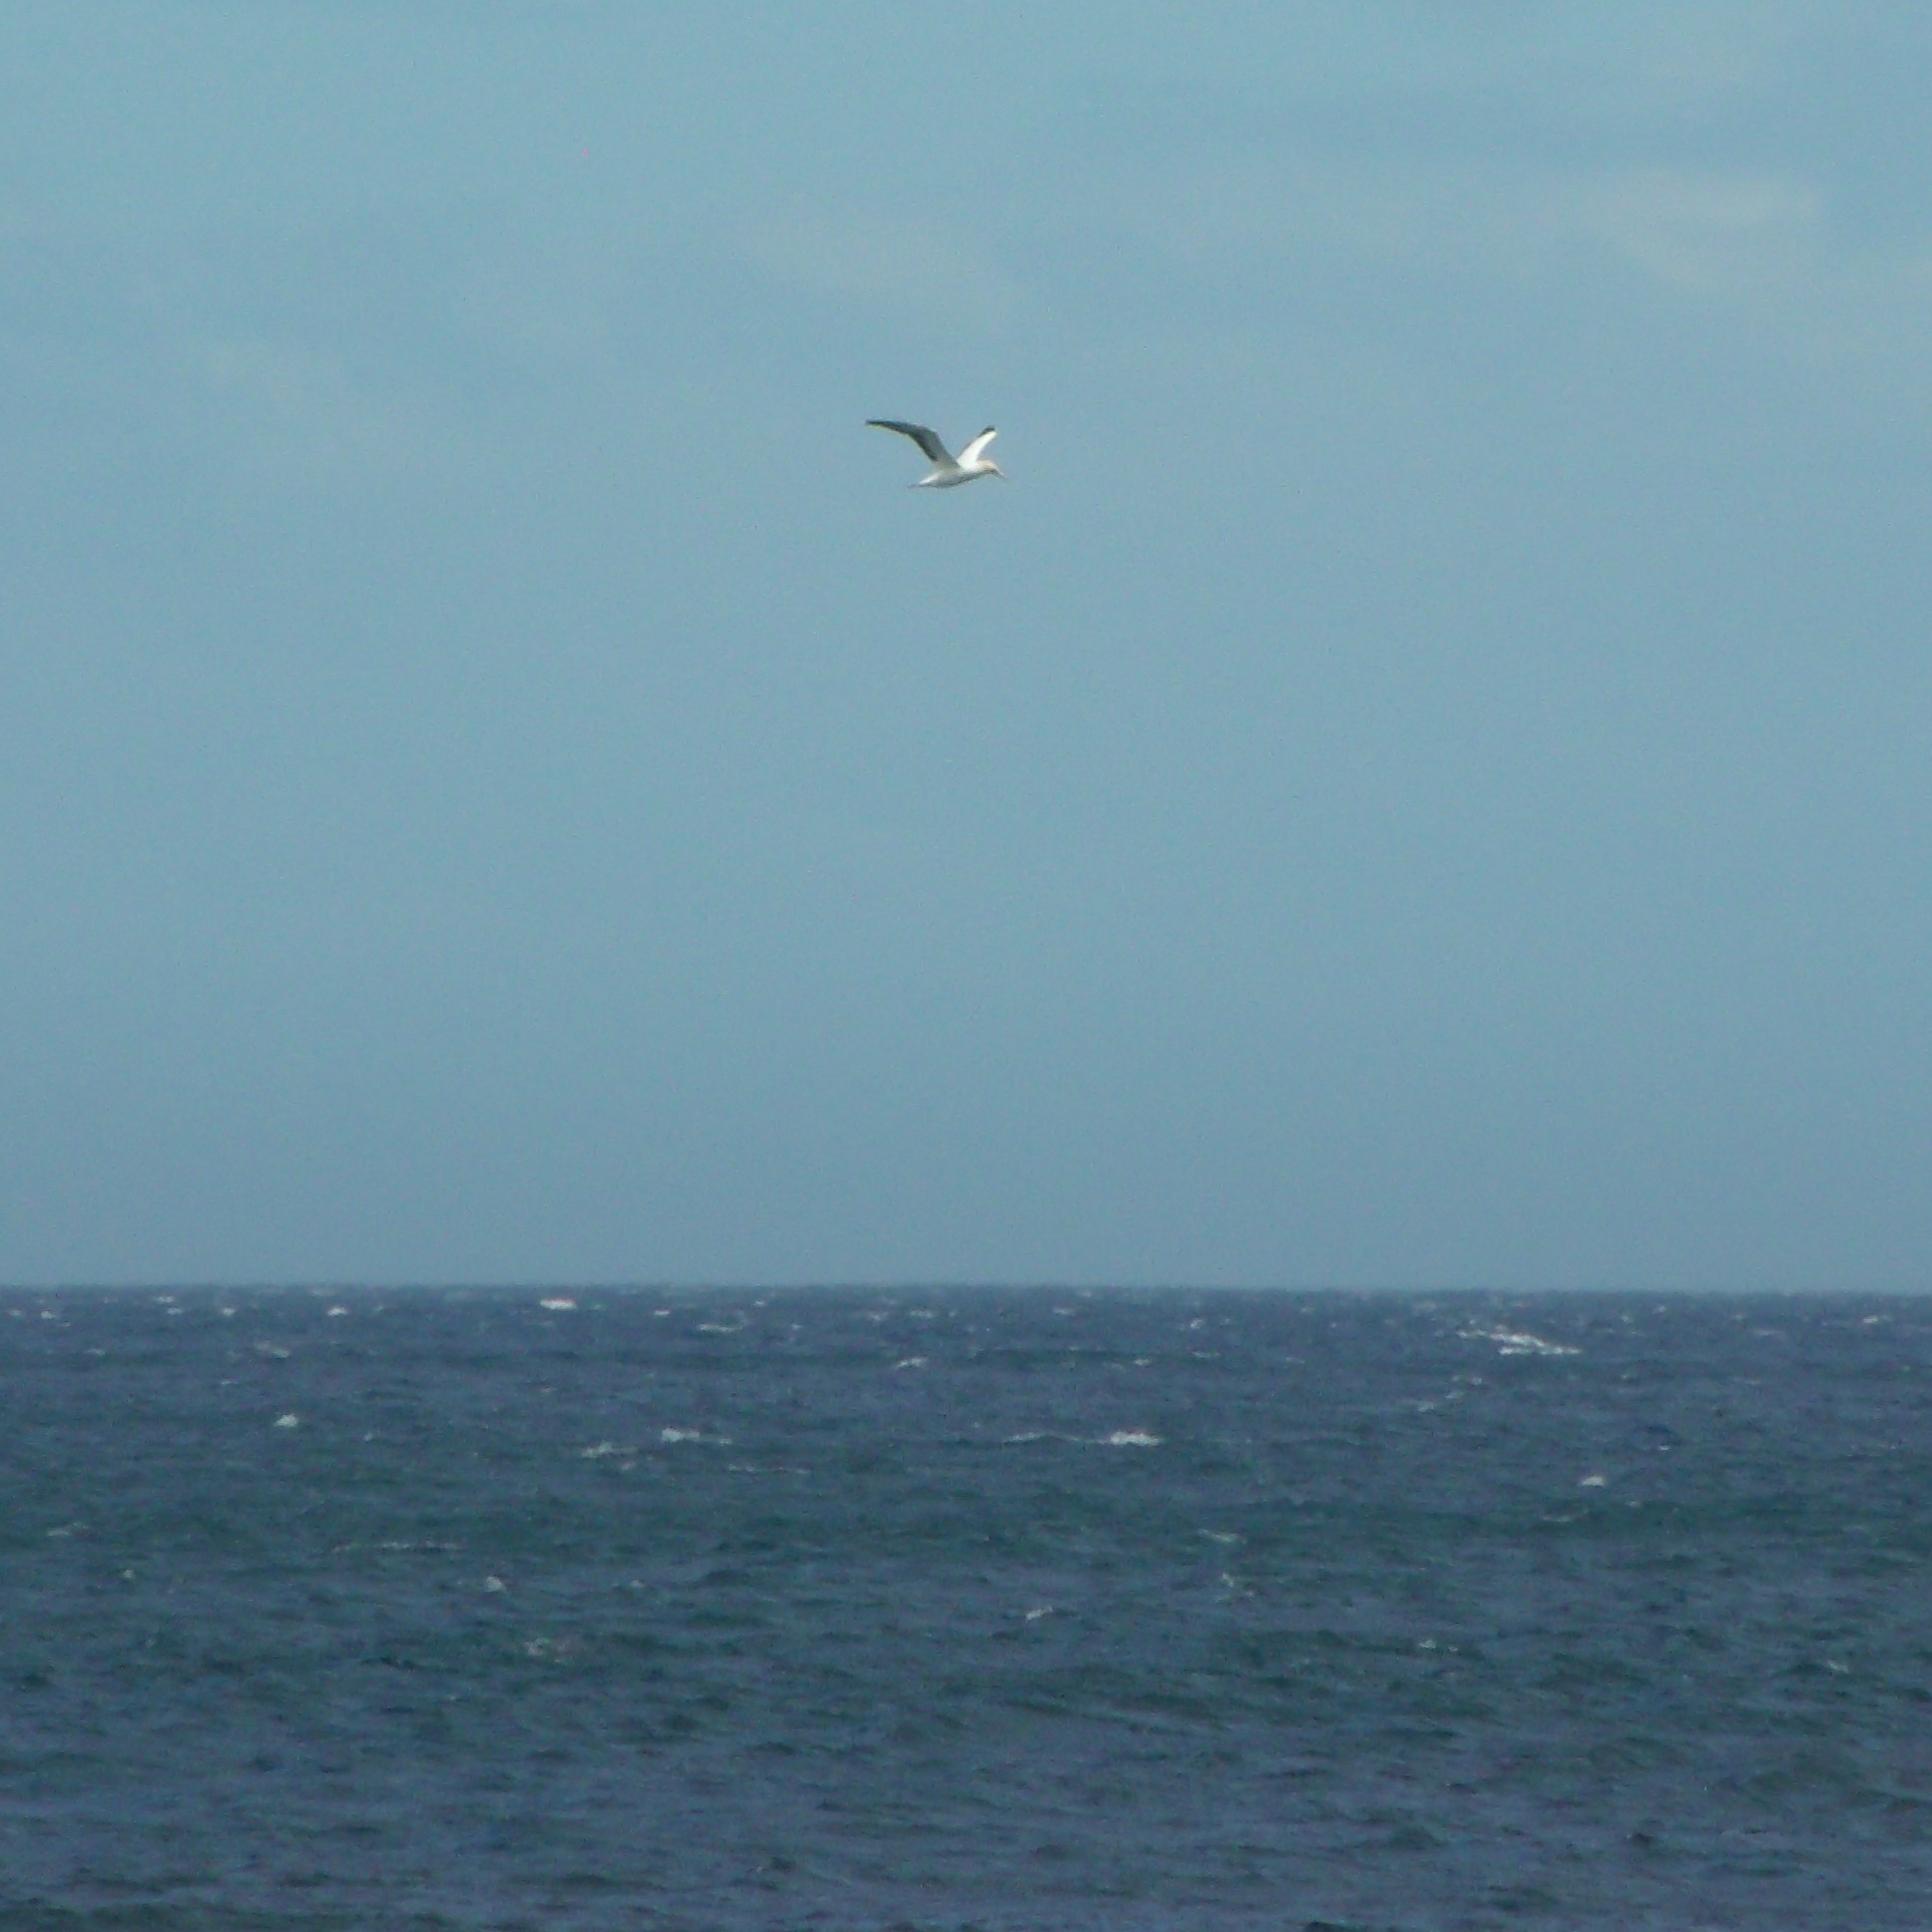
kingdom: Animalia
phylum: Chordata
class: Aves
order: Suliformes
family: Sulidae
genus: Morus
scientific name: Morus serrator
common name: Australasian gannet
